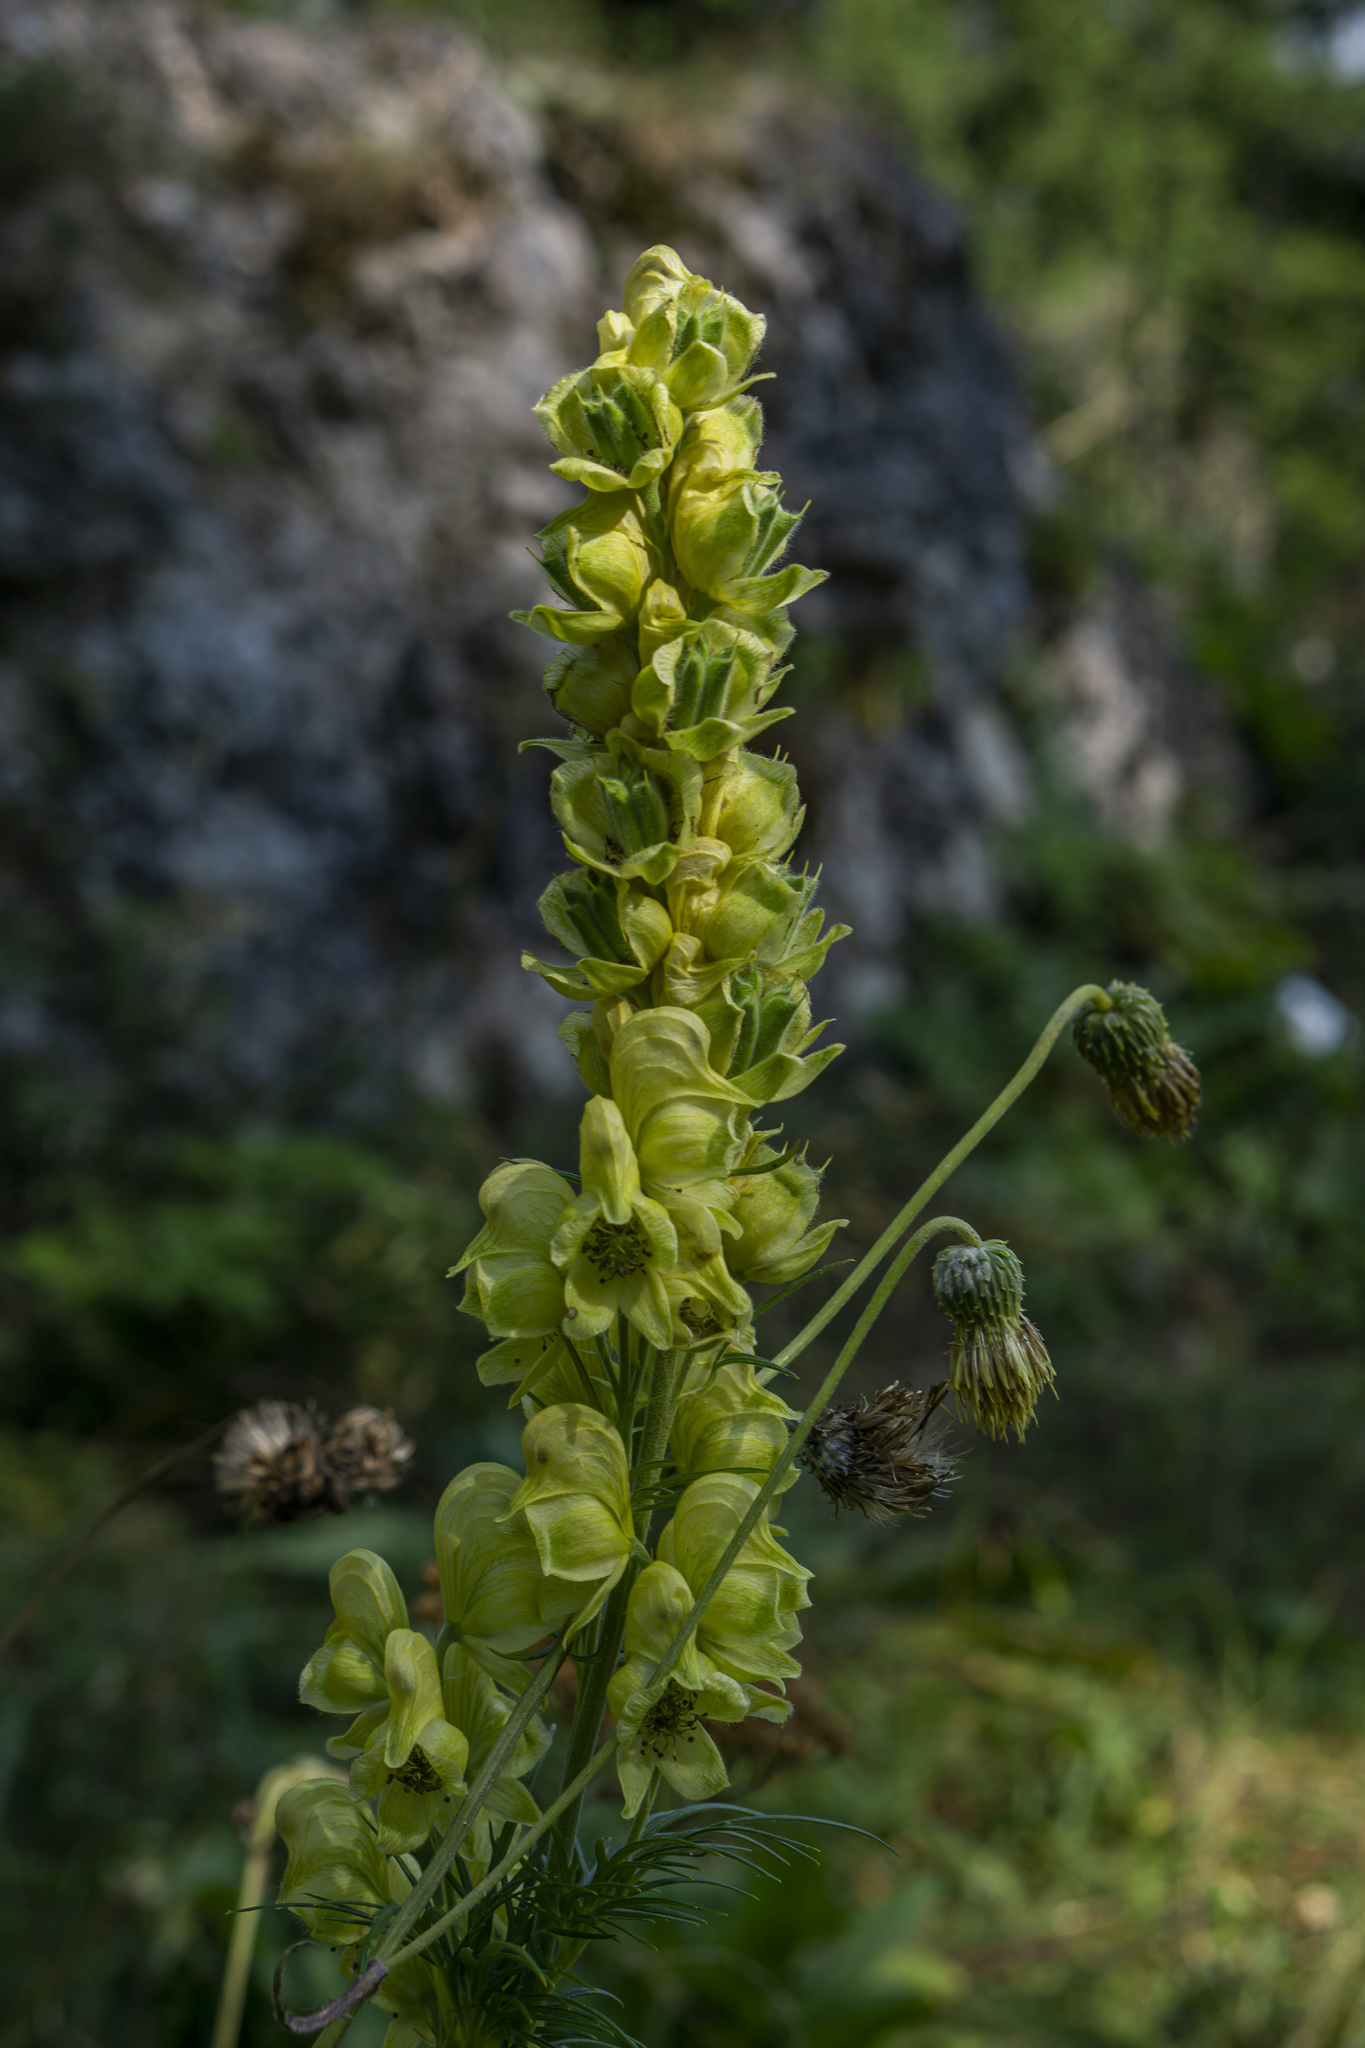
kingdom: Plantae
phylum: Tracheophyta
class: Magnoliopsida
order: Ranunculales
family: Ranunculaceae
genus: Aconitum
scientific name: Aconitum anthora
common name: Yellow monkshood
